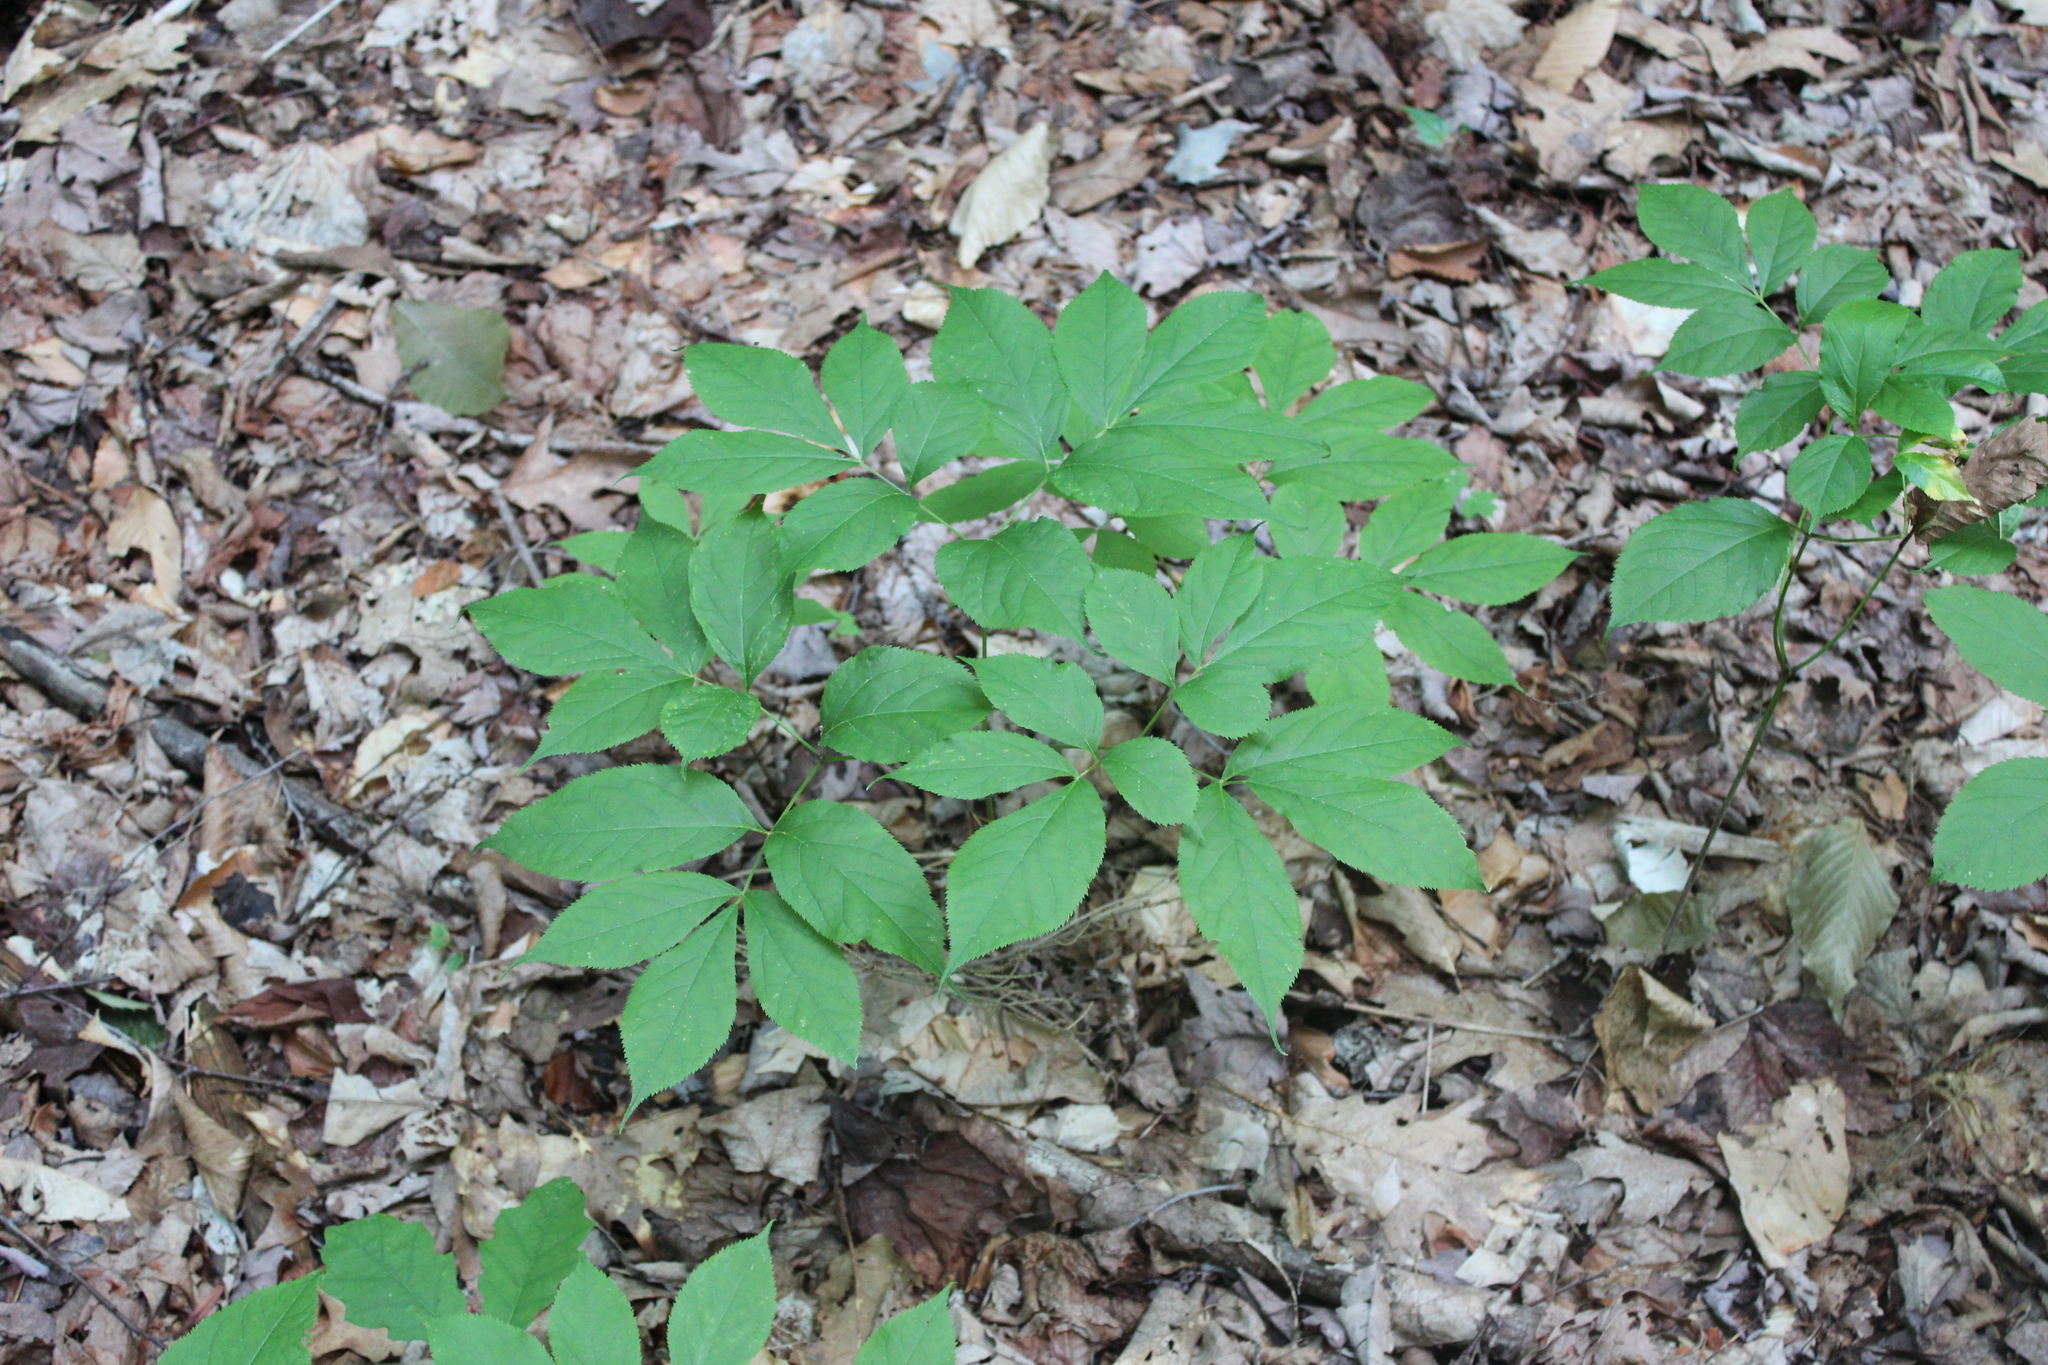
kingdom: Plantae
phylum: Tracheophyta
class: Magnoliopsida
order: Apiales
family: Araliaceae
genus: Aralia
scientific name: Aralia nudicaulis
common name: Wild sarsaparilla
